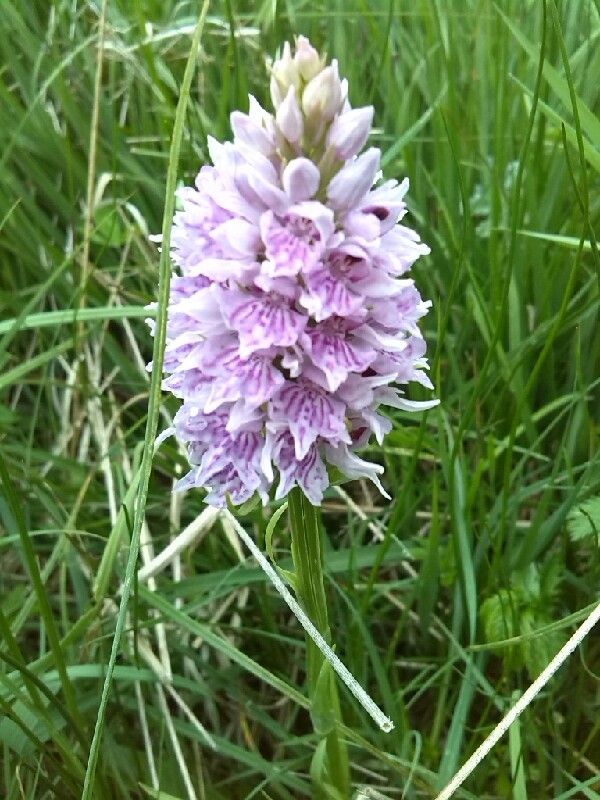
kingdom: Plantae
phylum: Tracheophyta
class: Liliopsida
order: Asparagales
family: Orchidaceae
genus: Dactylorhiza
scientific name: Dactylorhiza maculata
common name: Heath spotted-orchid
